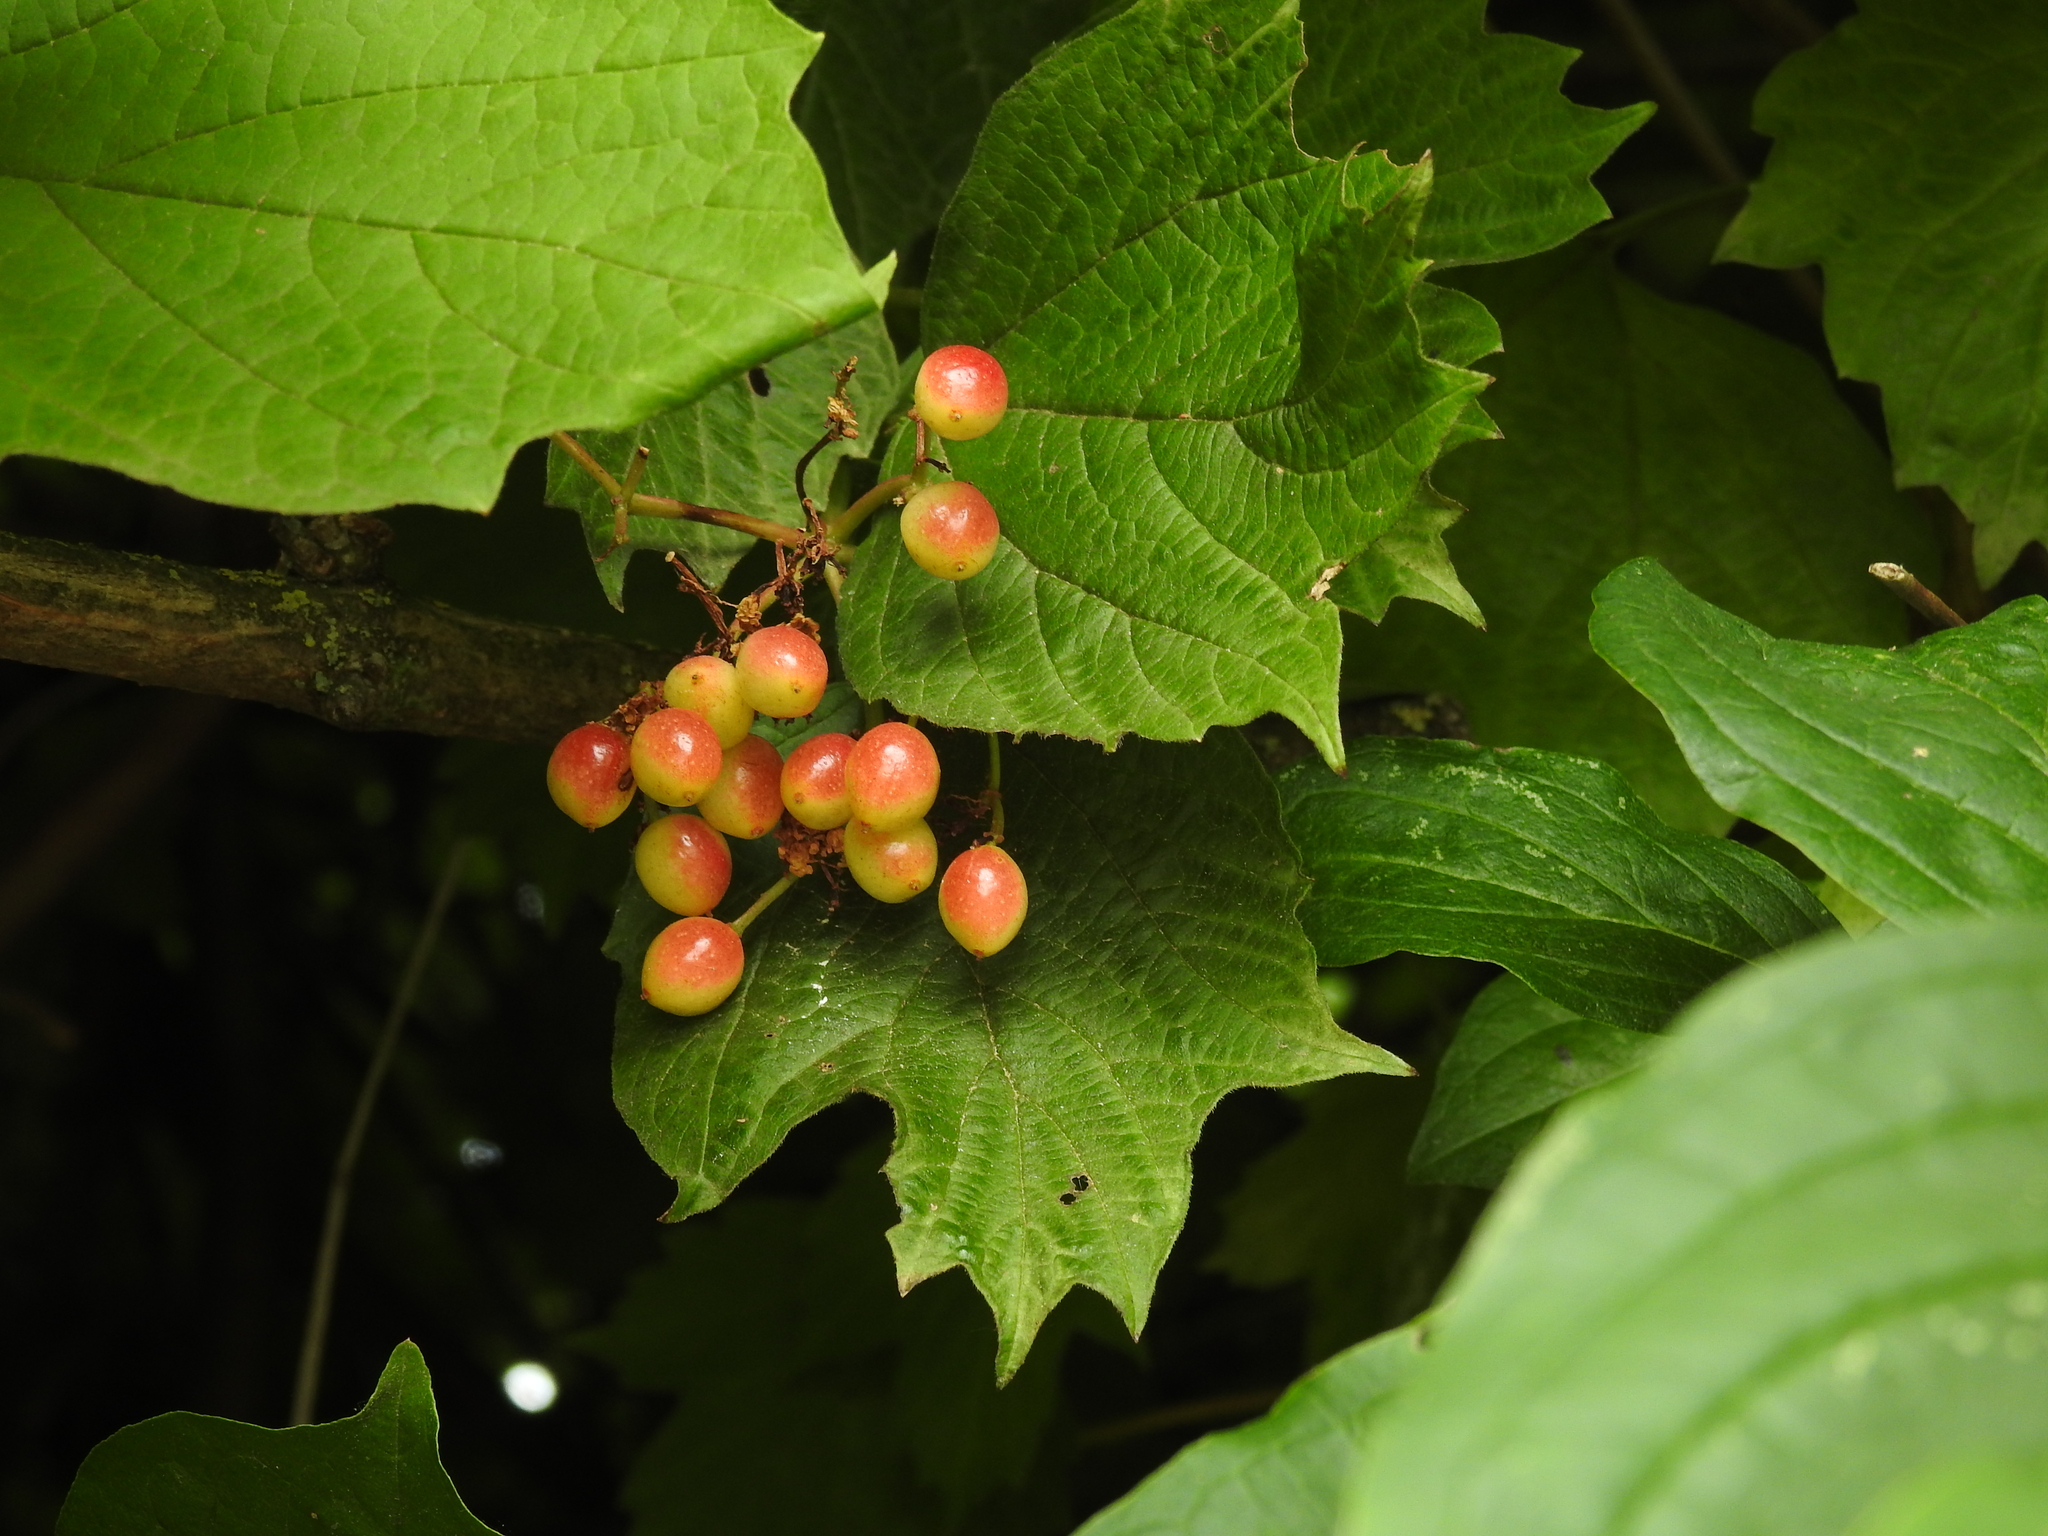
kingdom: Plantae
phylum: Tracheophyta
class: Magnoliopsida
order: Dipsacales
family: Viburnaceae
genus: Viburnum
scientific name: Viburnum opulus
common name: Guelder-rose
